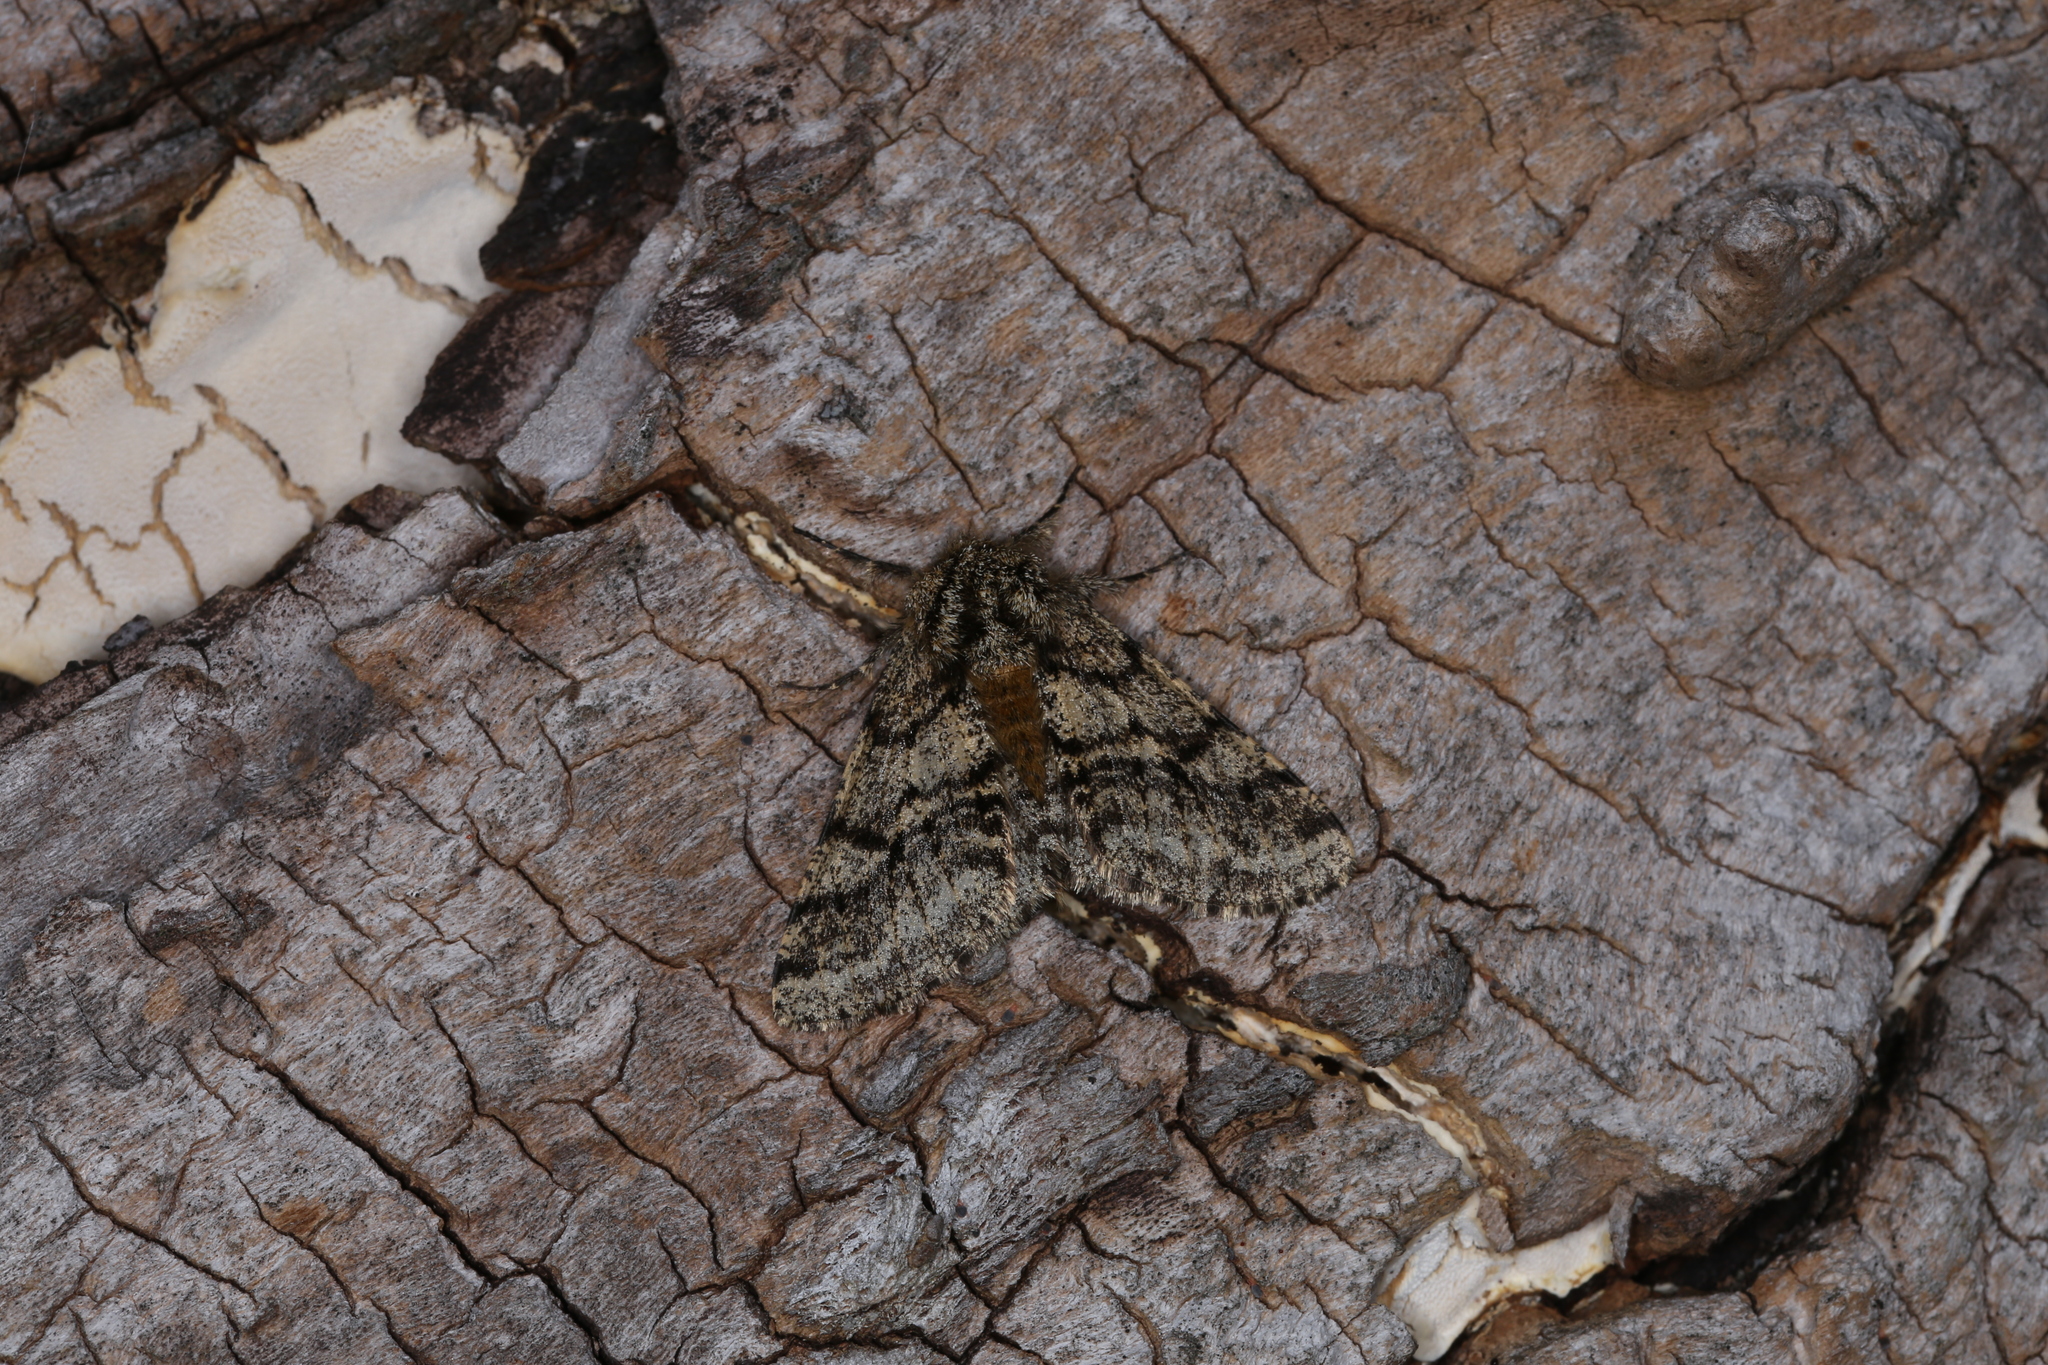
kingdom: Animalia
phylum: Arthropoda
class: Insecta
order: Lepidoptera
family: Geometridae
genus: Lycia
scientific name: Lycia hirtaria
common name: Brindled beauty
